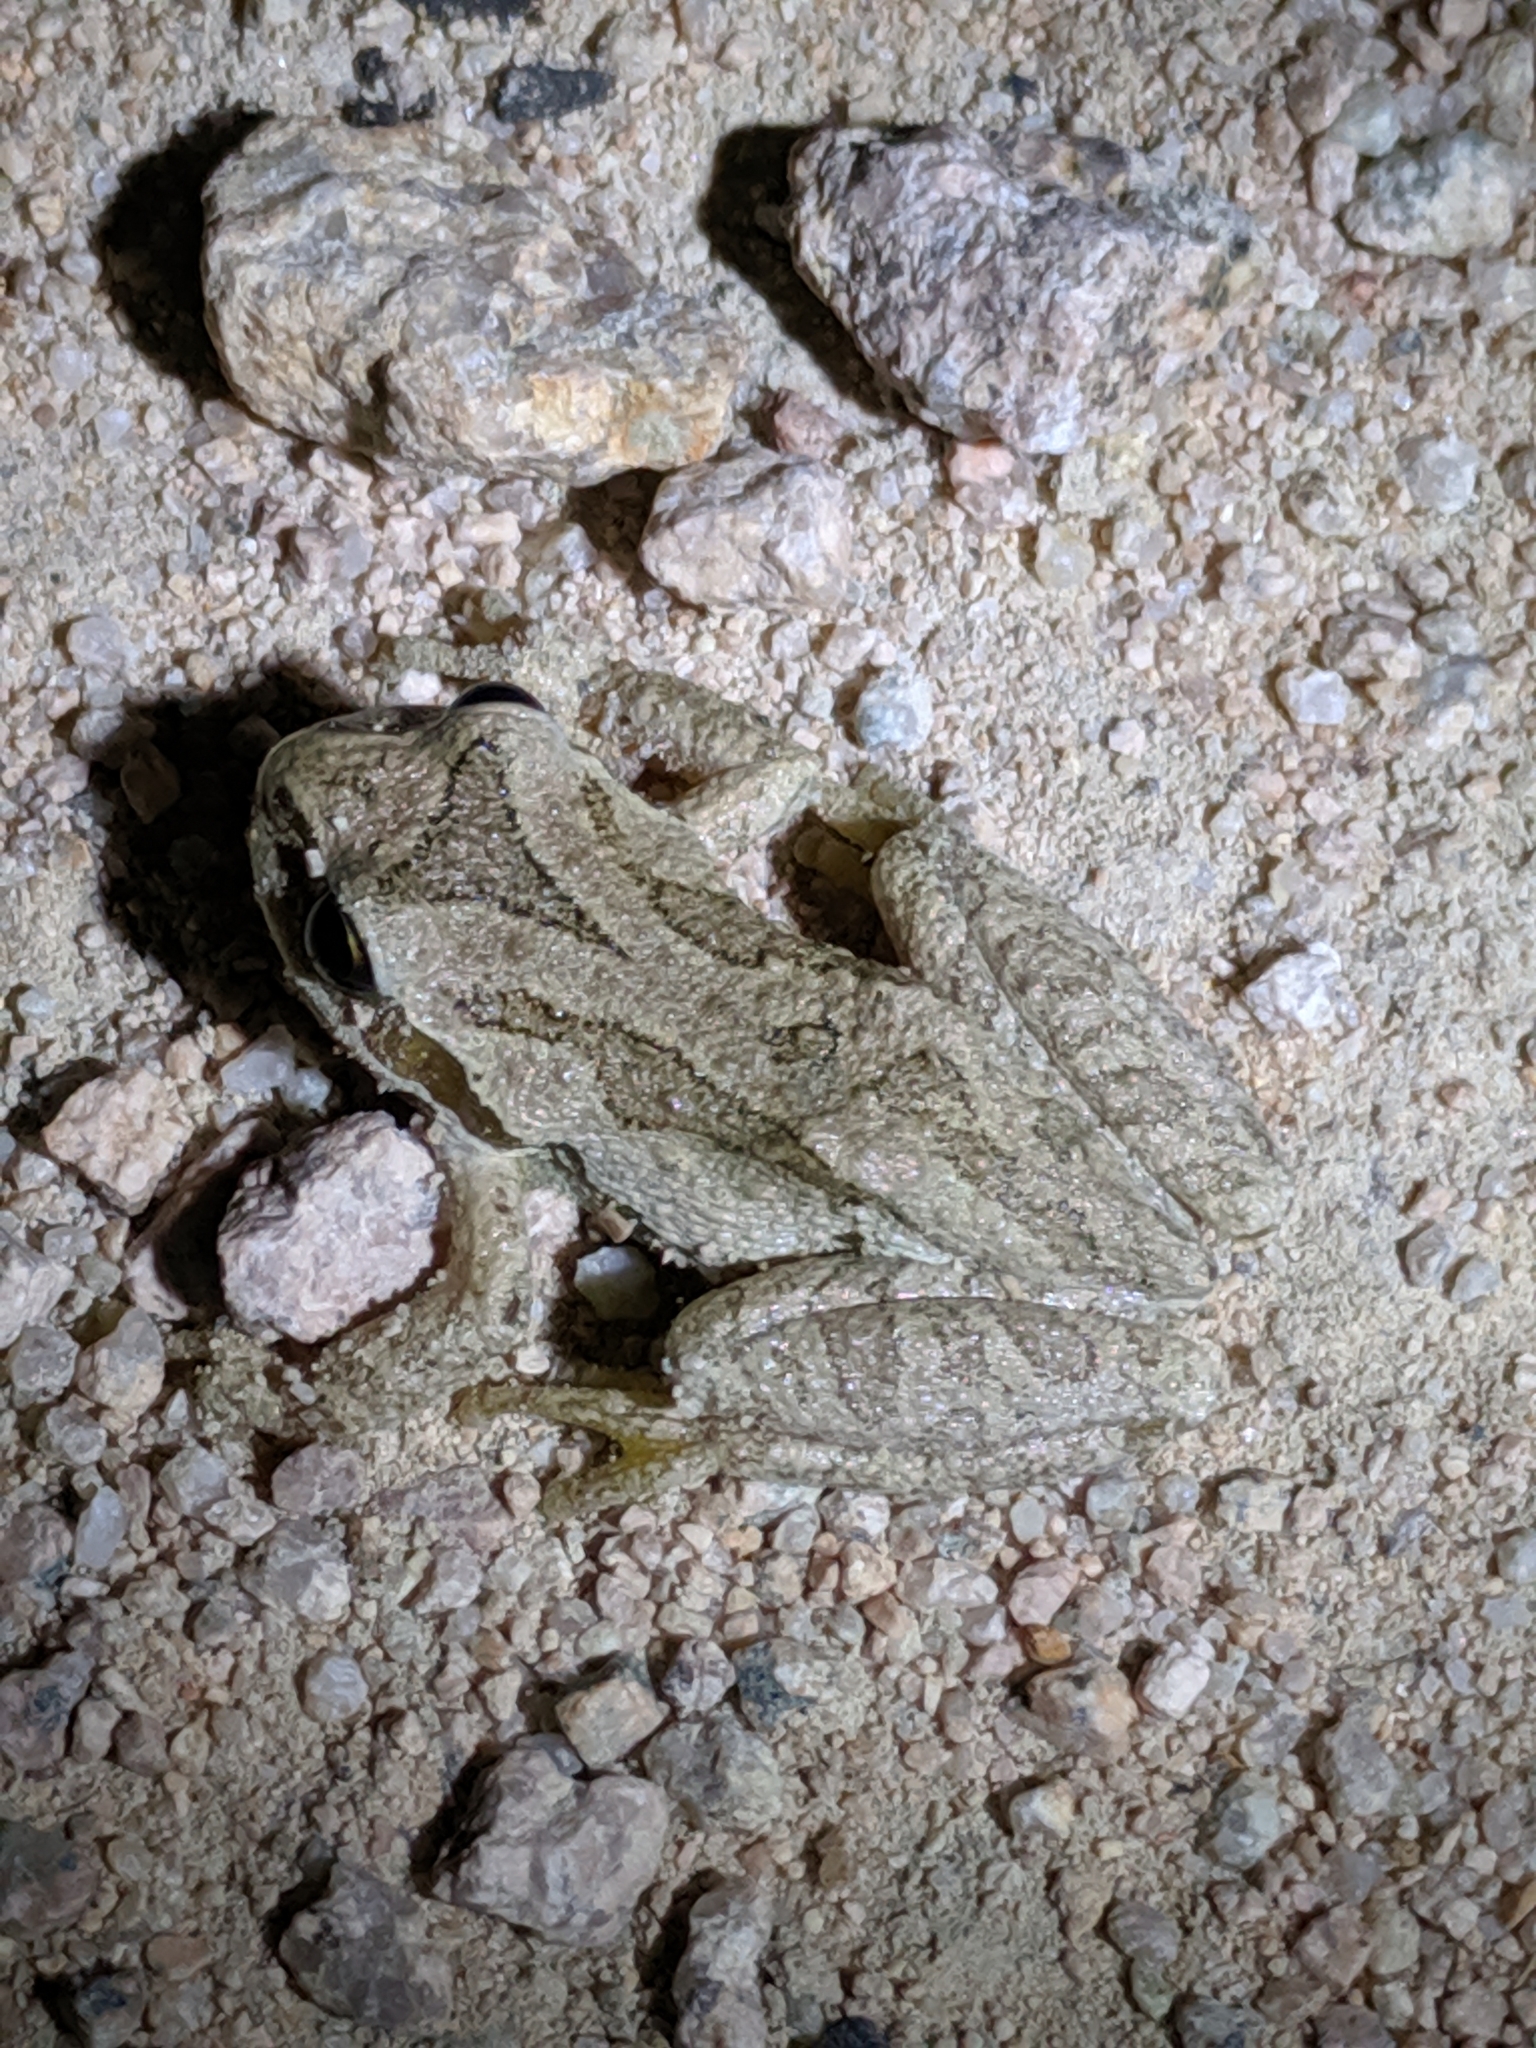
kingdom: Animalia
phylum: Chordata
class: Amphibia
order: Anura
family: Hylidae
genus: Pseudacris
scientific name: Pseudacris regilla
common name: Pacific chorus frog
